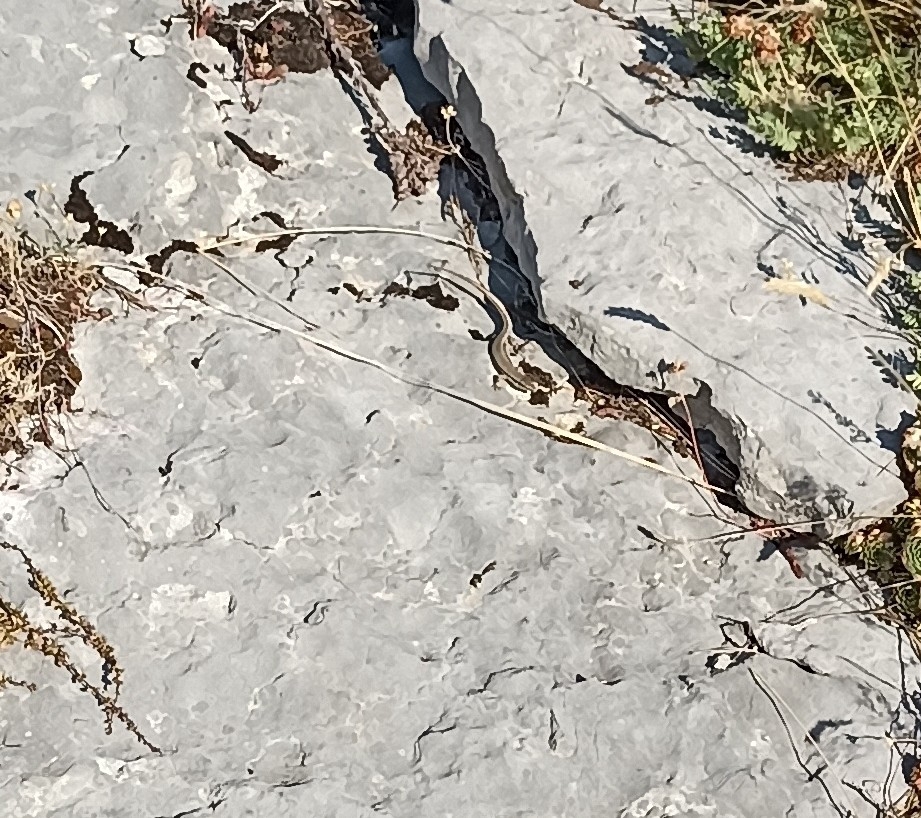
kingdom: Animalia
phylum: Chordata
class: Squamata
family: Lacertidae
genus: Podarcis
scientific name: Podarcis muralis
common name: Common wall lizard
